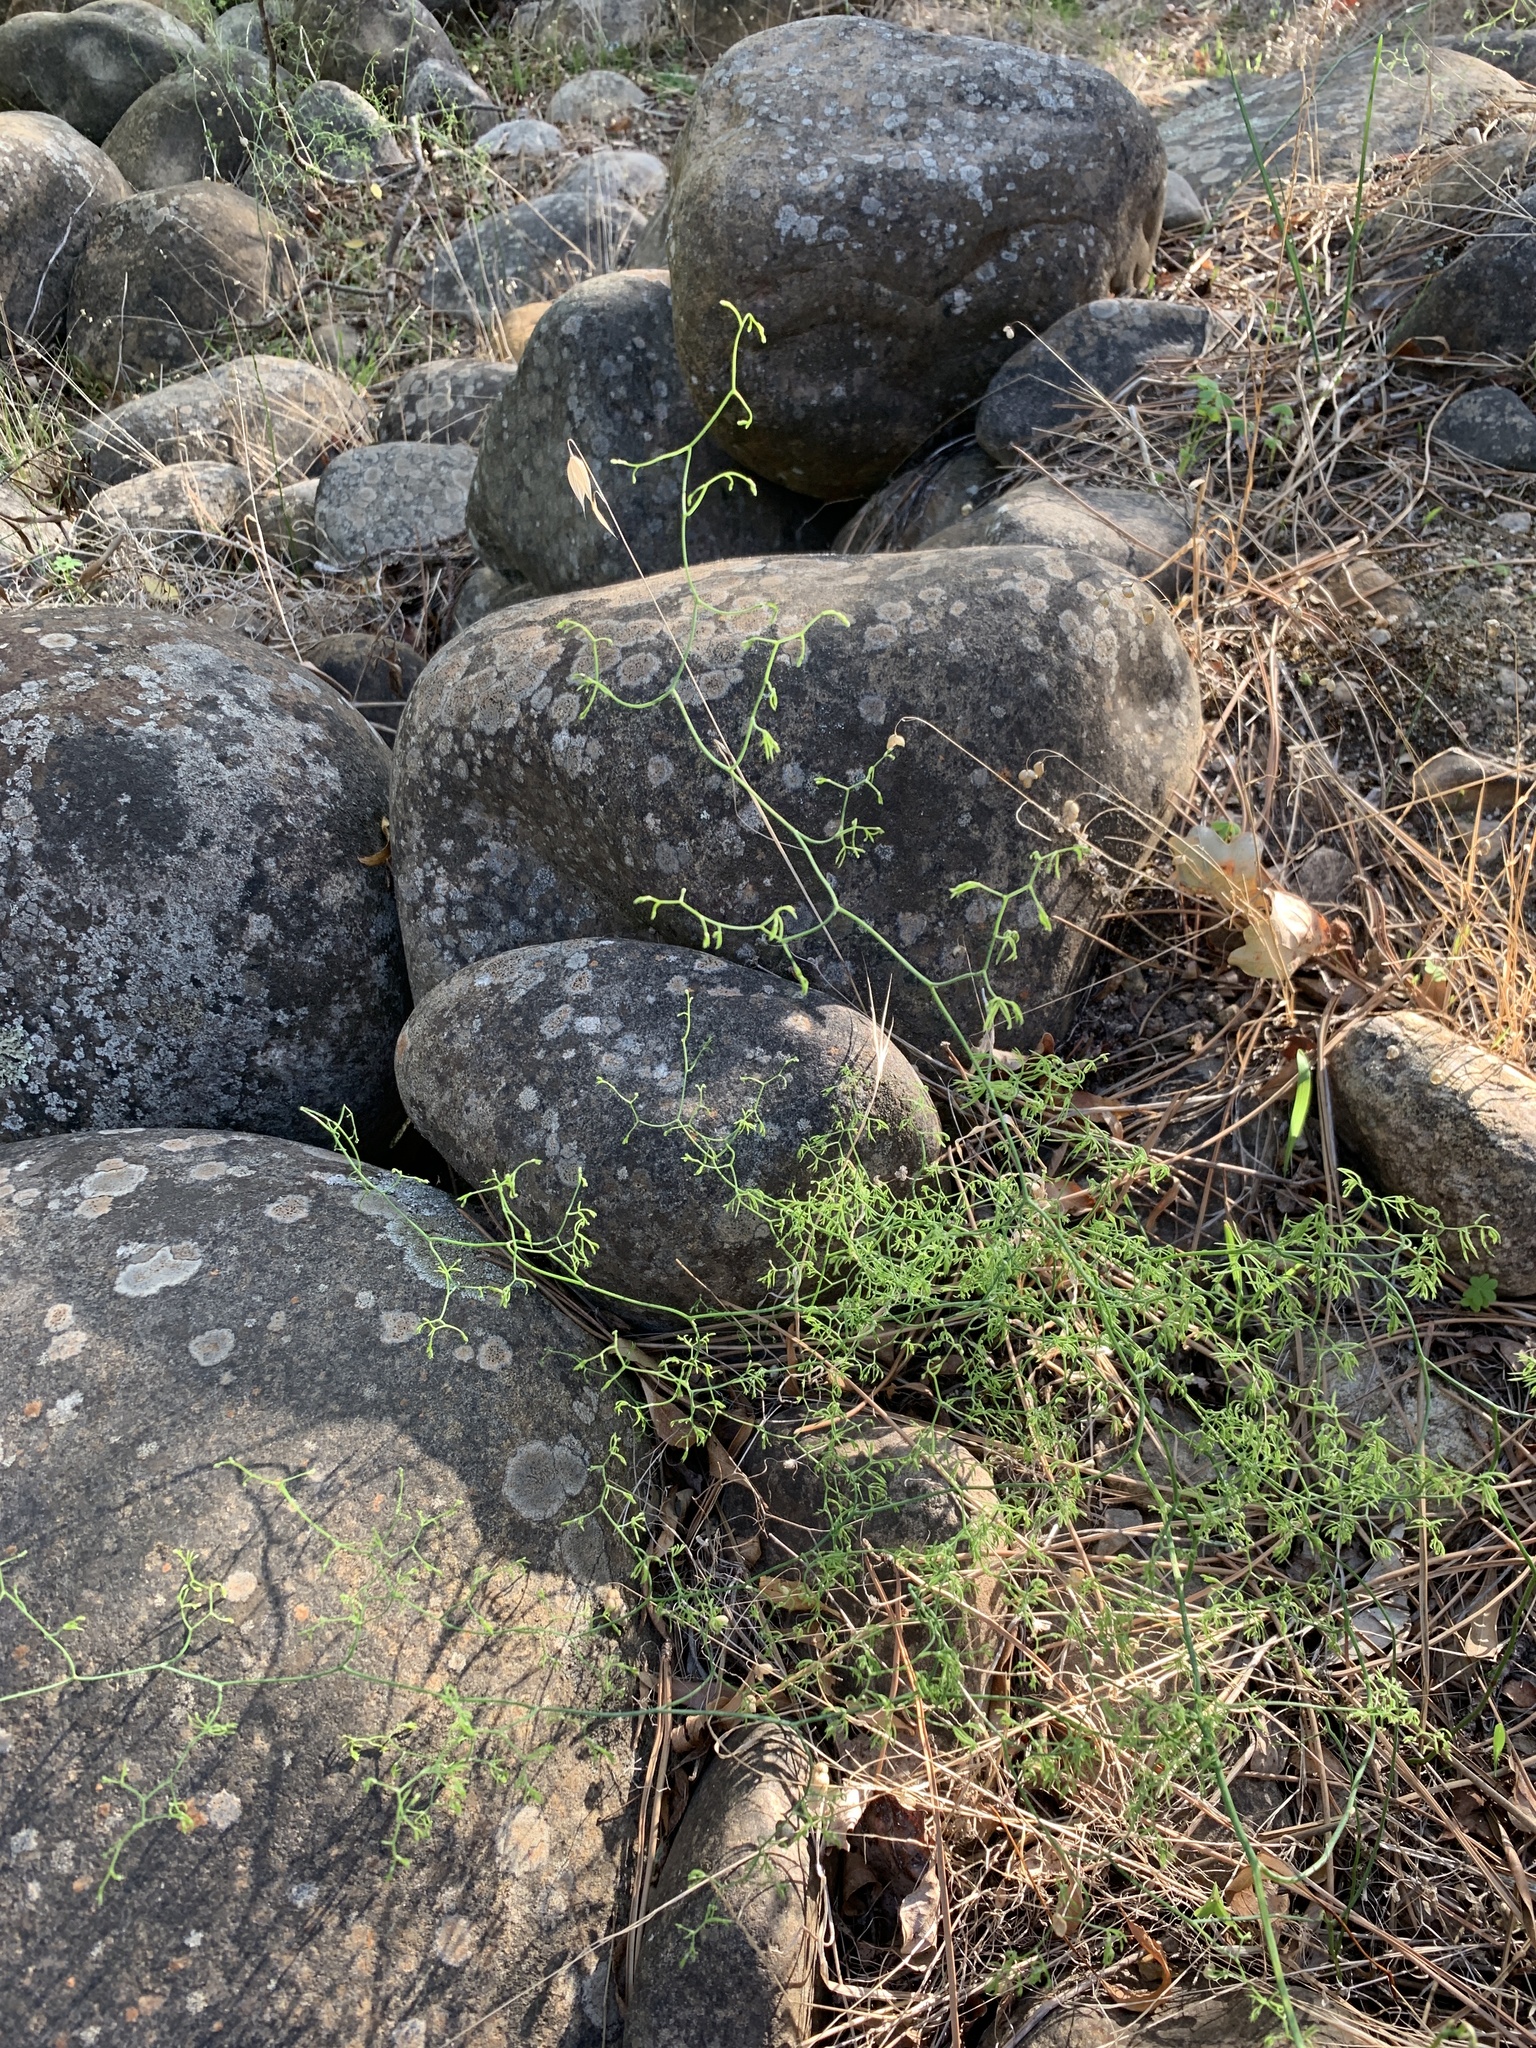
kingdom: Plantae
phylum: Tracheophyta
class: Liliopsida
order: Asparagales
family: Asparagaceae
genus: Asparagus
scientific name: Asparagus declinatus
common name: Bridal-creeper
